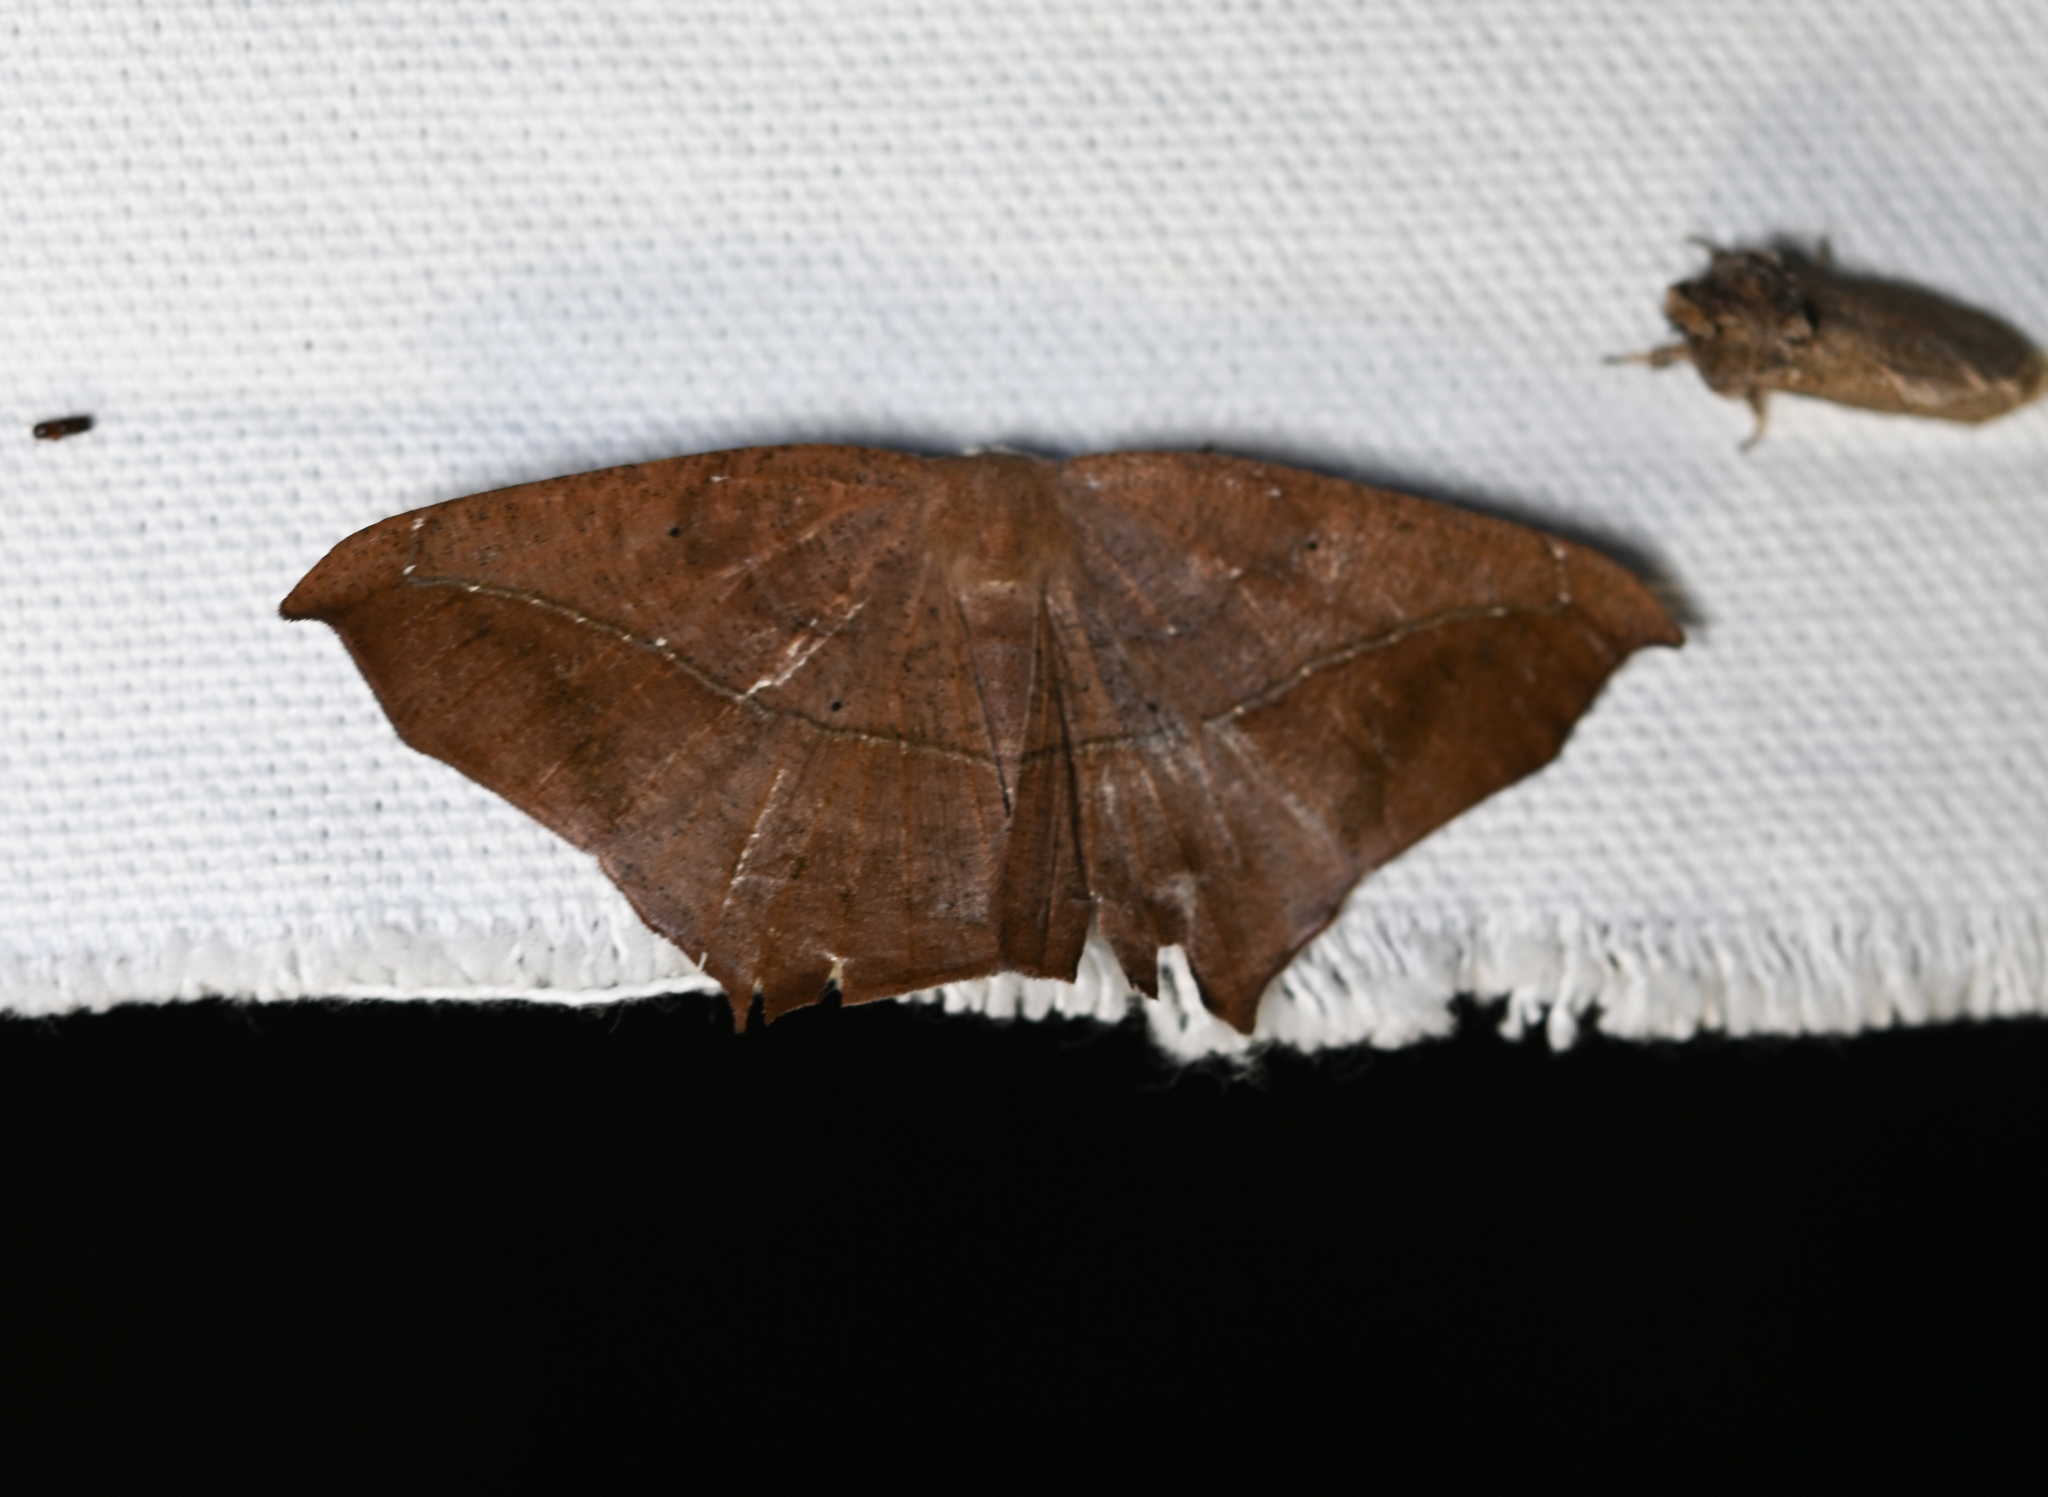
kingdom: Animalia
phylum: Arthropoda
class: Insecta
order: Lepidoptera
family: Geometridae
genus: Prochoerodes
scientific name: Prochoerodes lineola
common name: Large maple spanworm
